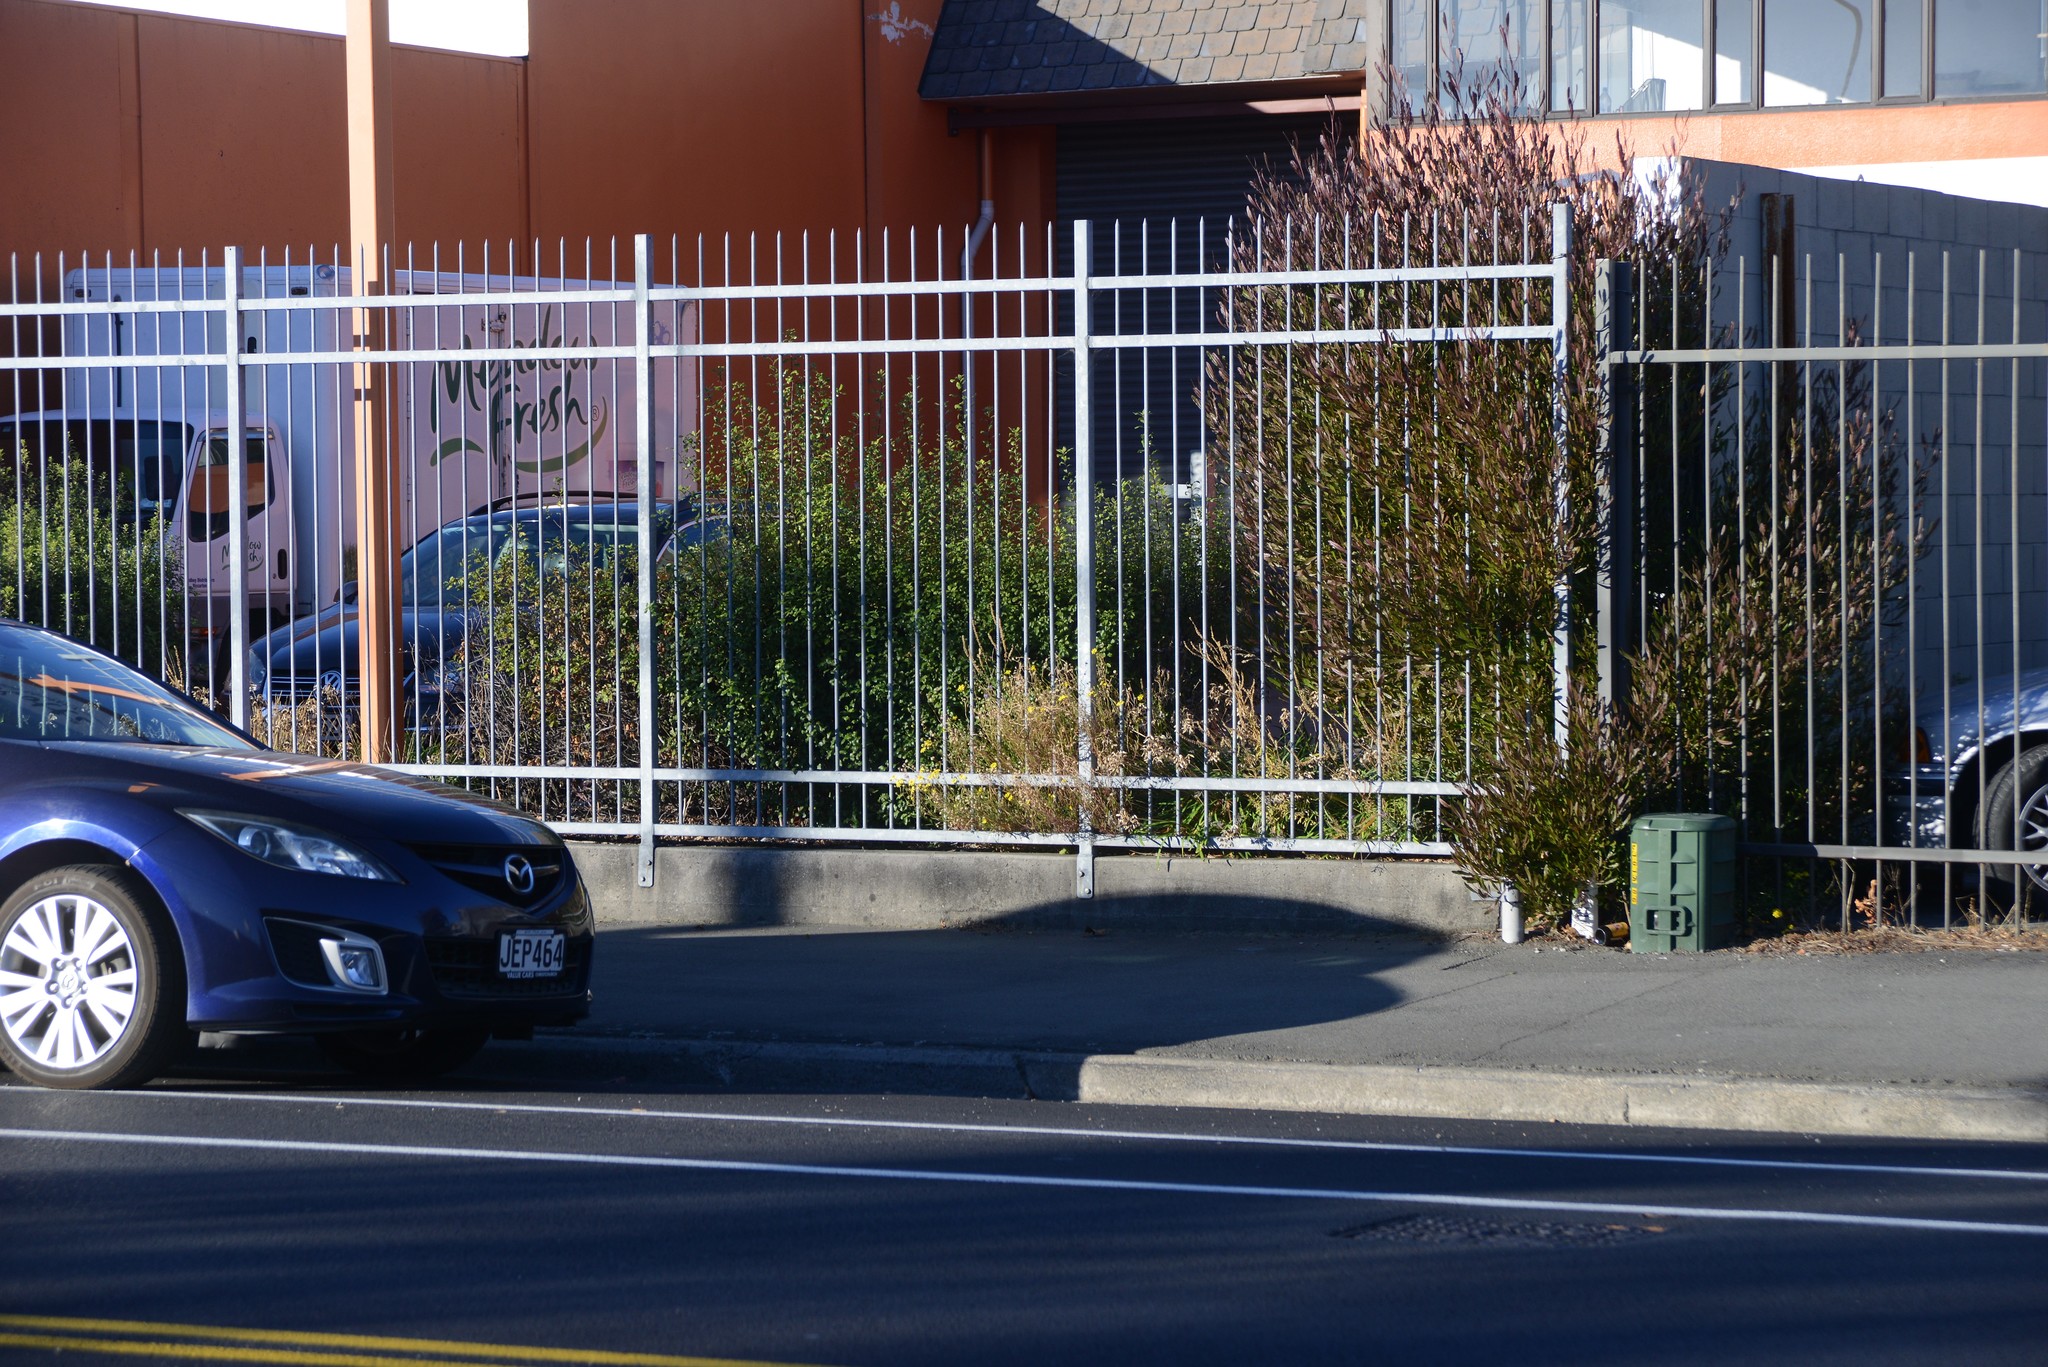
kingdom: Plantae
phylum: Tracheophyta
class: Magnoliopsida
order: Sapindales
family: Sapindaceae
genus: Dodonaea
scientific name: Dodonaea viscosa
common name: Hopbush
